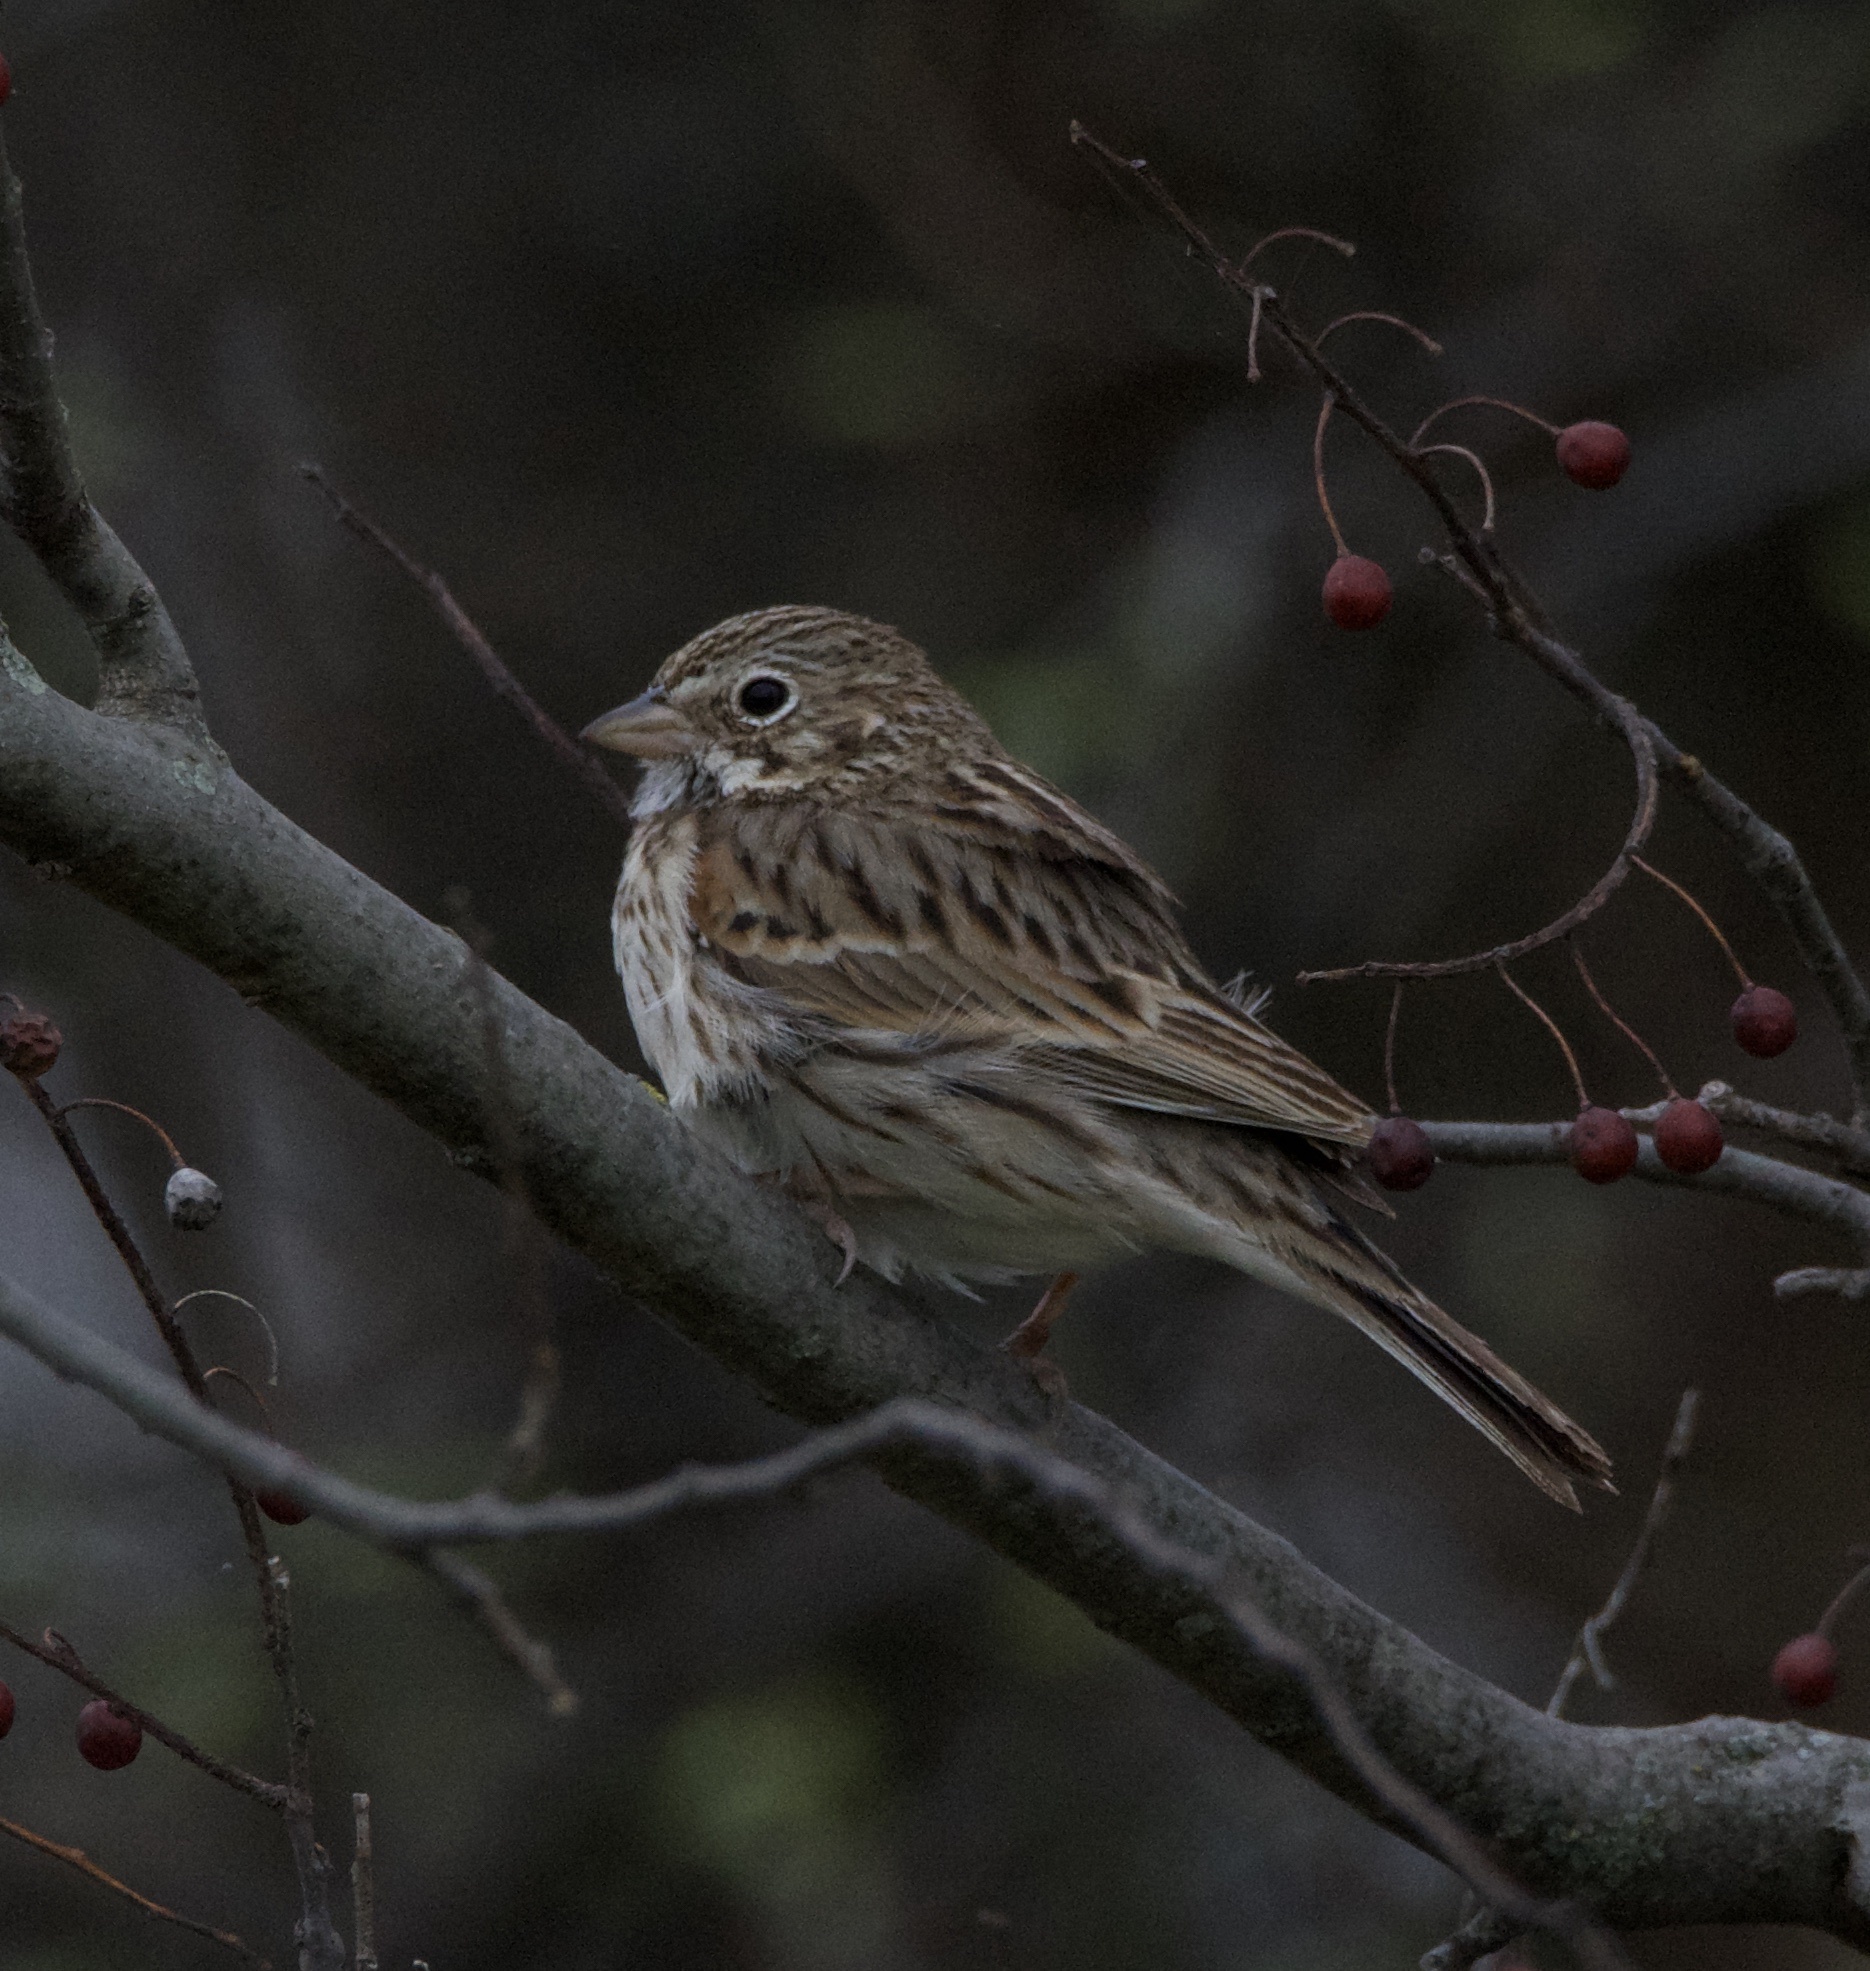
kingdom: Animalia
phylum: Chordata
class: Aves
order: Passeriformes
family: Passerellidae
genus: Pooecetes
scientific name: Pooecetes gramineus
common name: Vesper sparrow
